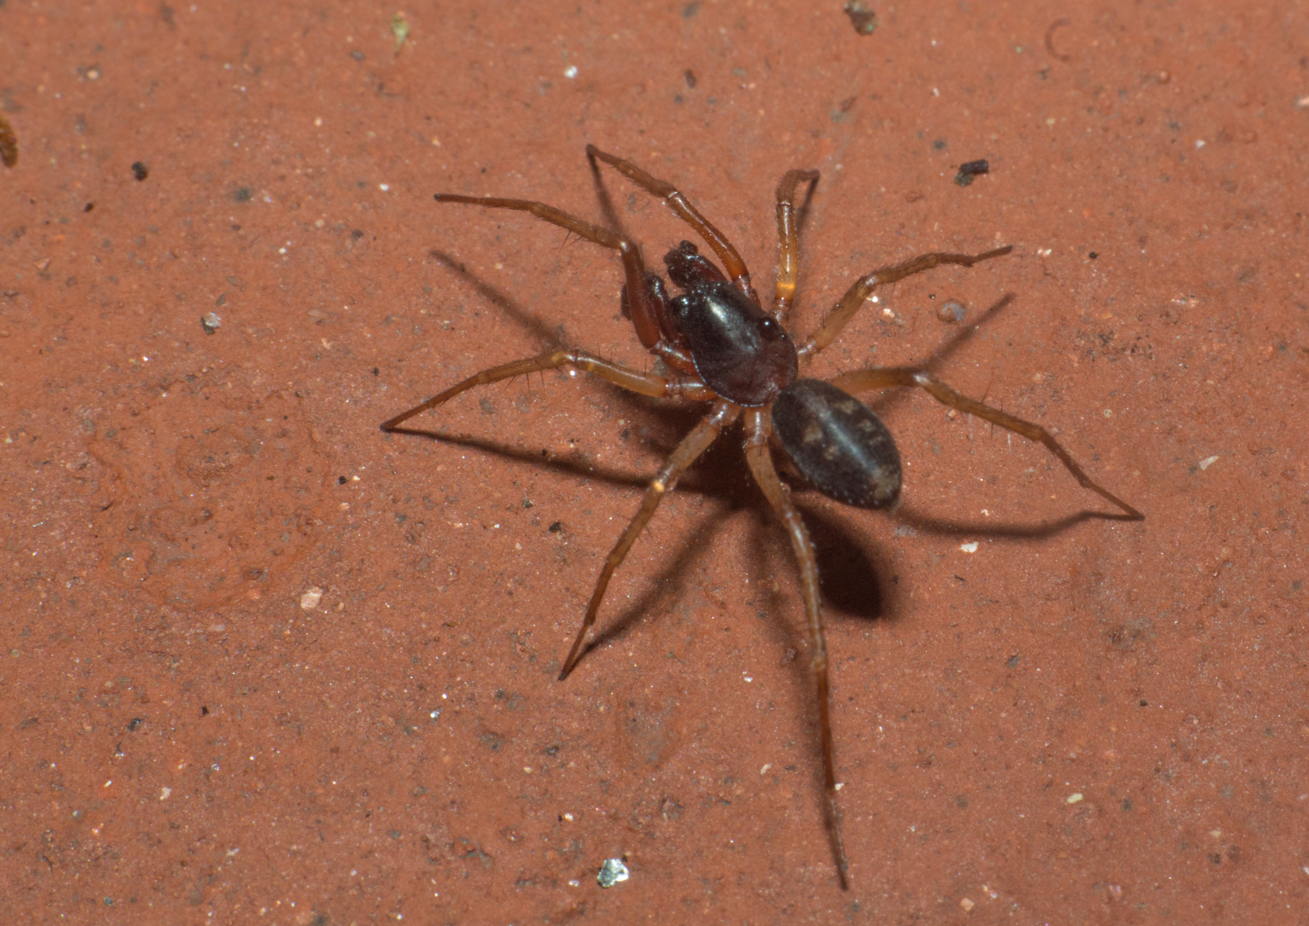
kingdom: Animalia
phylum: Arthropoda
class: Arachnida
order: Araneae
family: Corinnidae
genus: Falconina
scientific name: Falconina gracilis
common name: Antmimic spider
